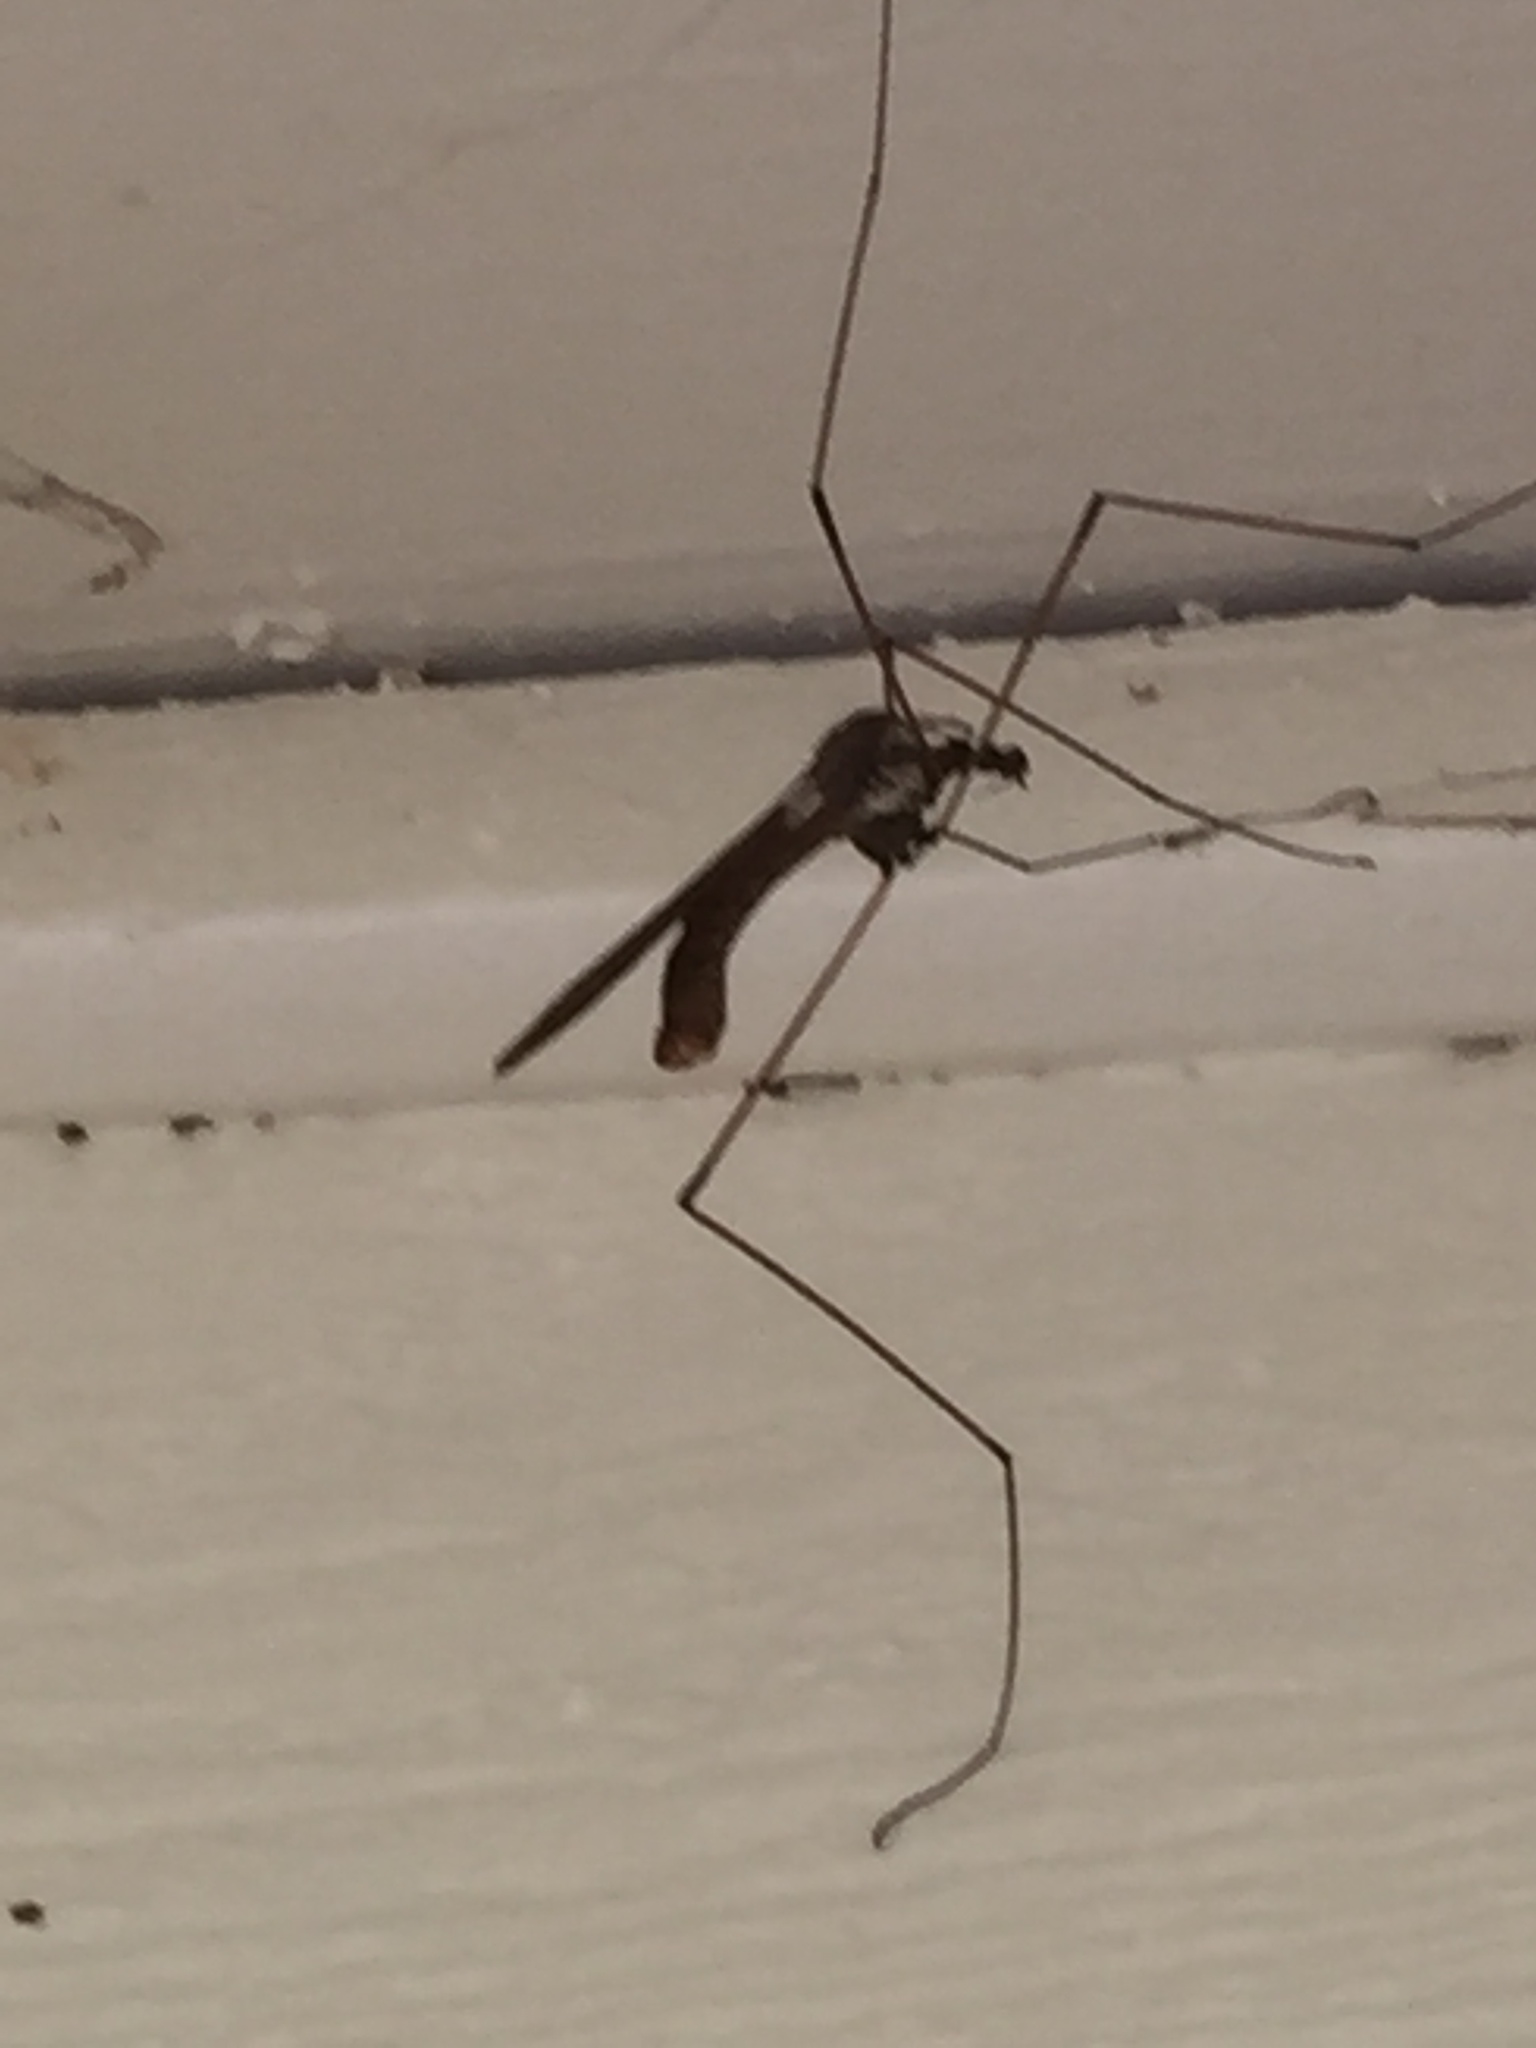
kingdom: Animalia
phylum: Arthropoda
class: Insecta
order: Diptera
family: Tipulidae
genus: Holorusia
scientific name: Holorusia hespera
